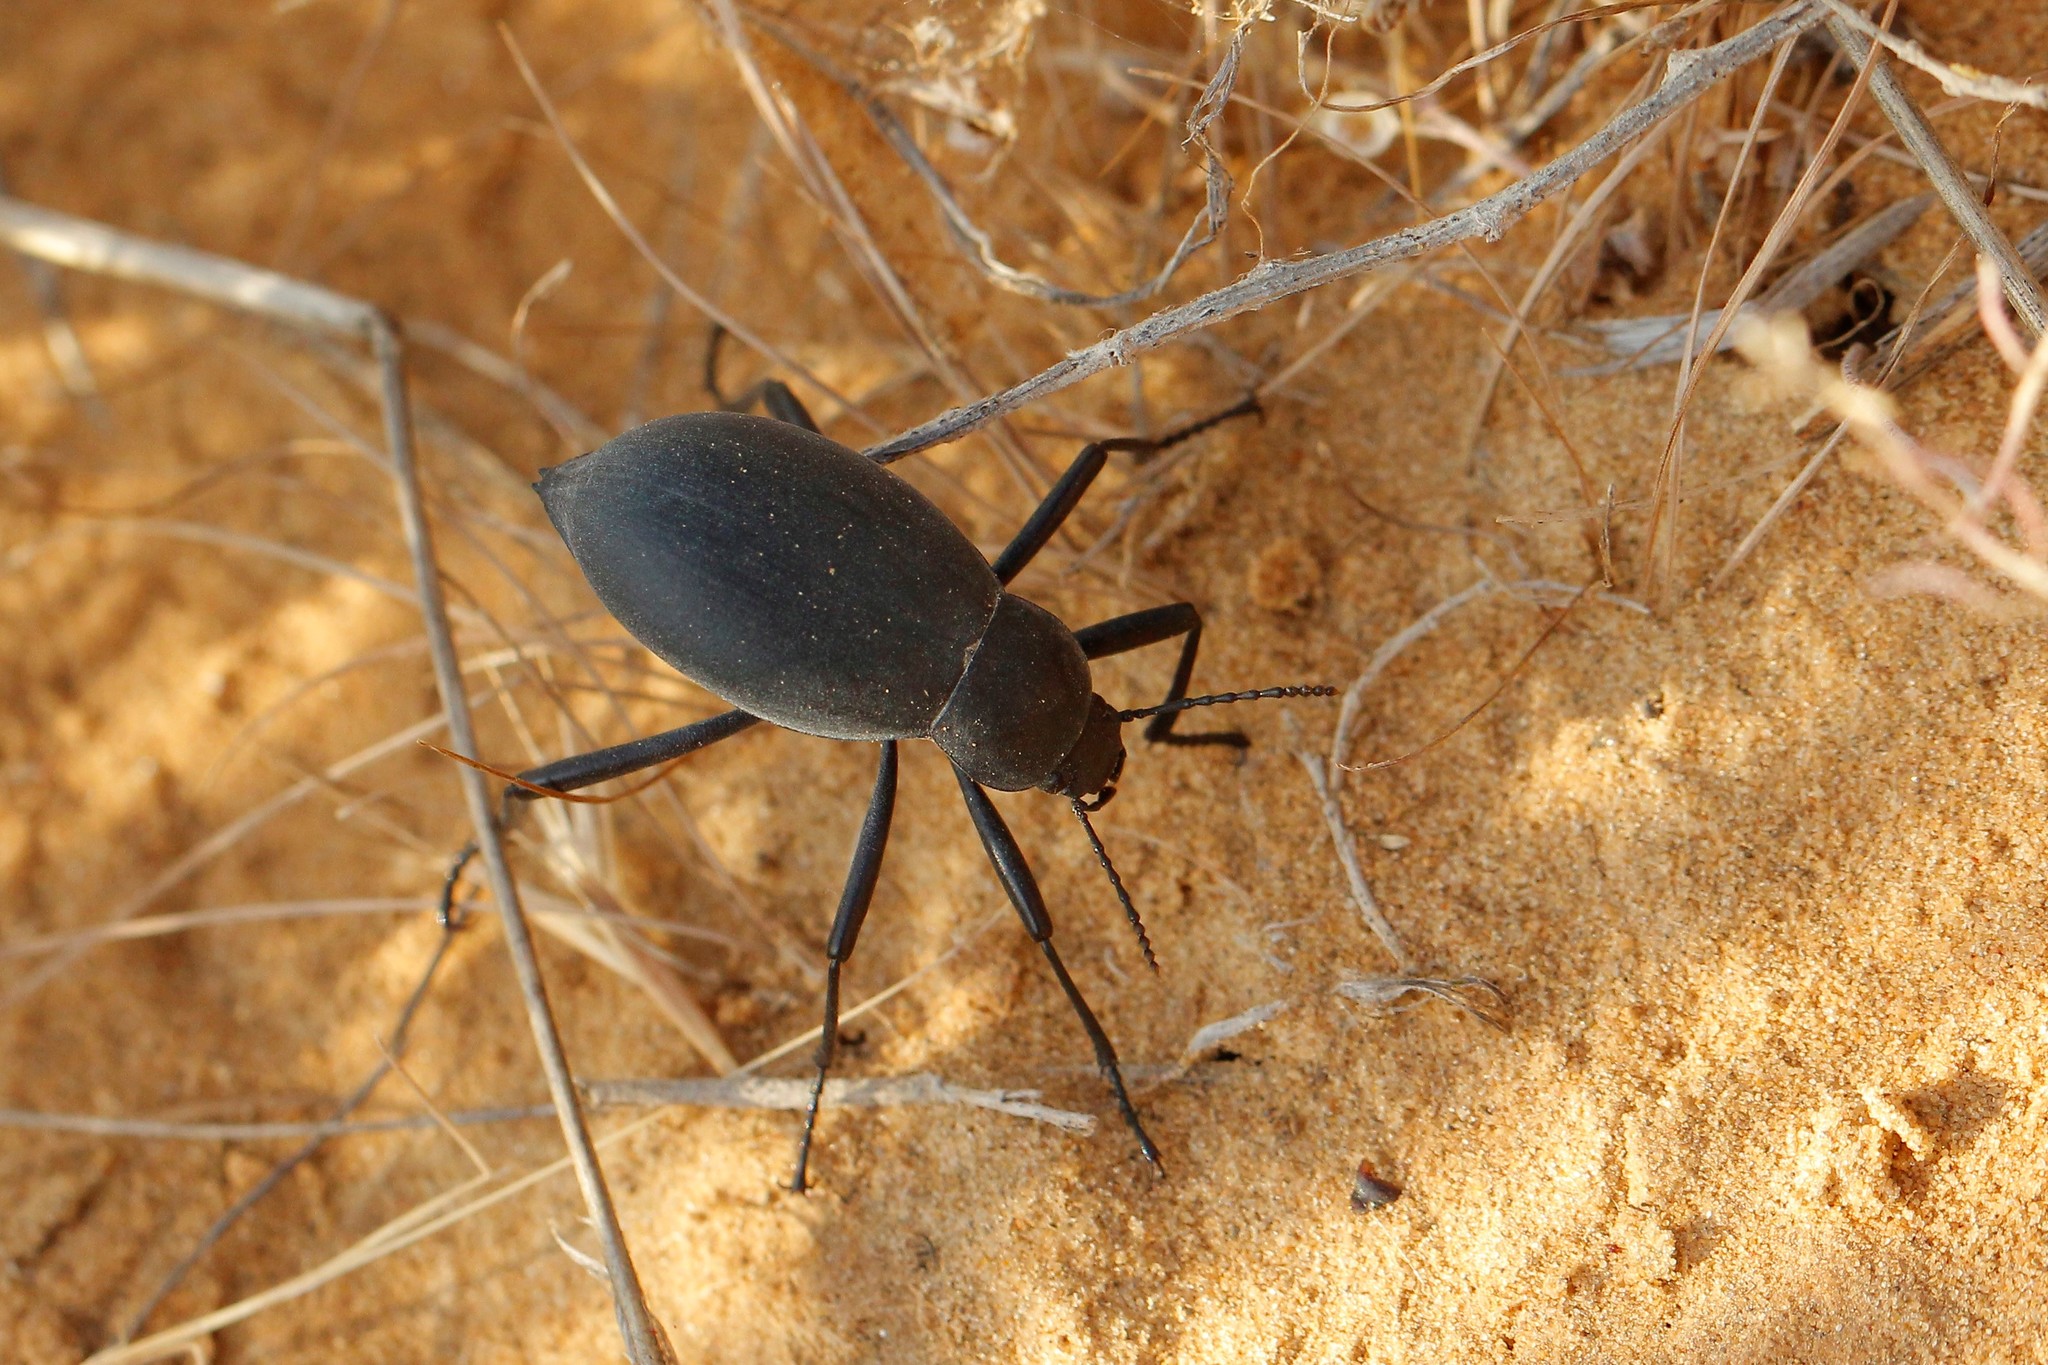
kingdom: Animalia
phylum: Arthropoda
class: Insecta
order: Coleoptera
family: Tenebrionidae
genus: Blaps
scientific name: Blaps pruinosa
